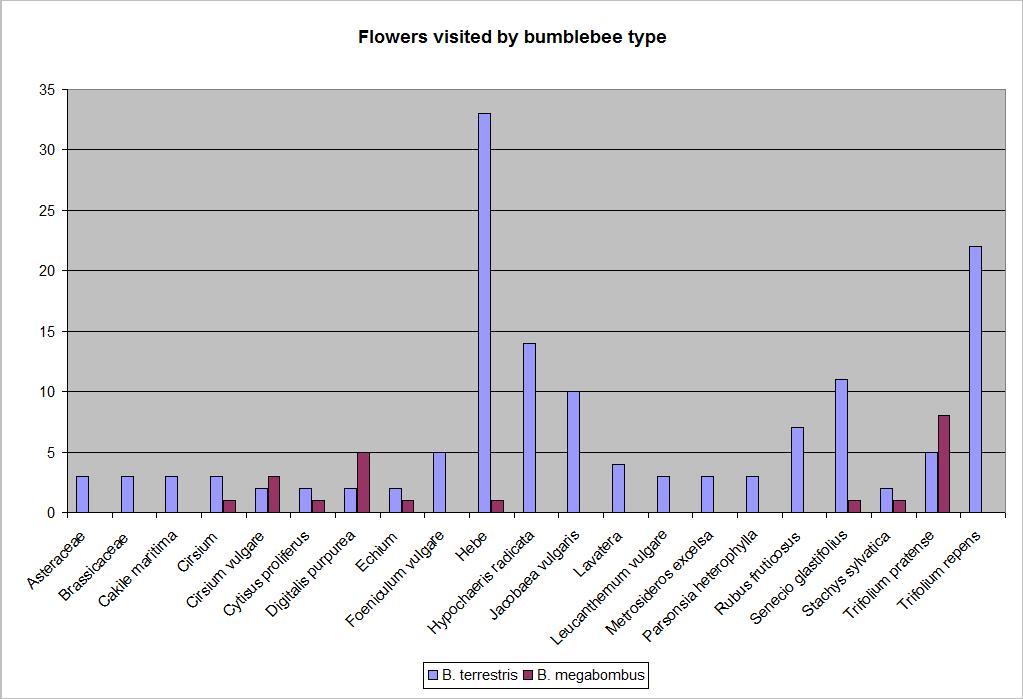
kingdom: Animalia
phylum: Arthropoda
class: Insecta
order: Hymenoptera
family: Apidae
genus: Bombus
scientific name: Bombus terrestris
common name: Buff-tailed bumblebee
